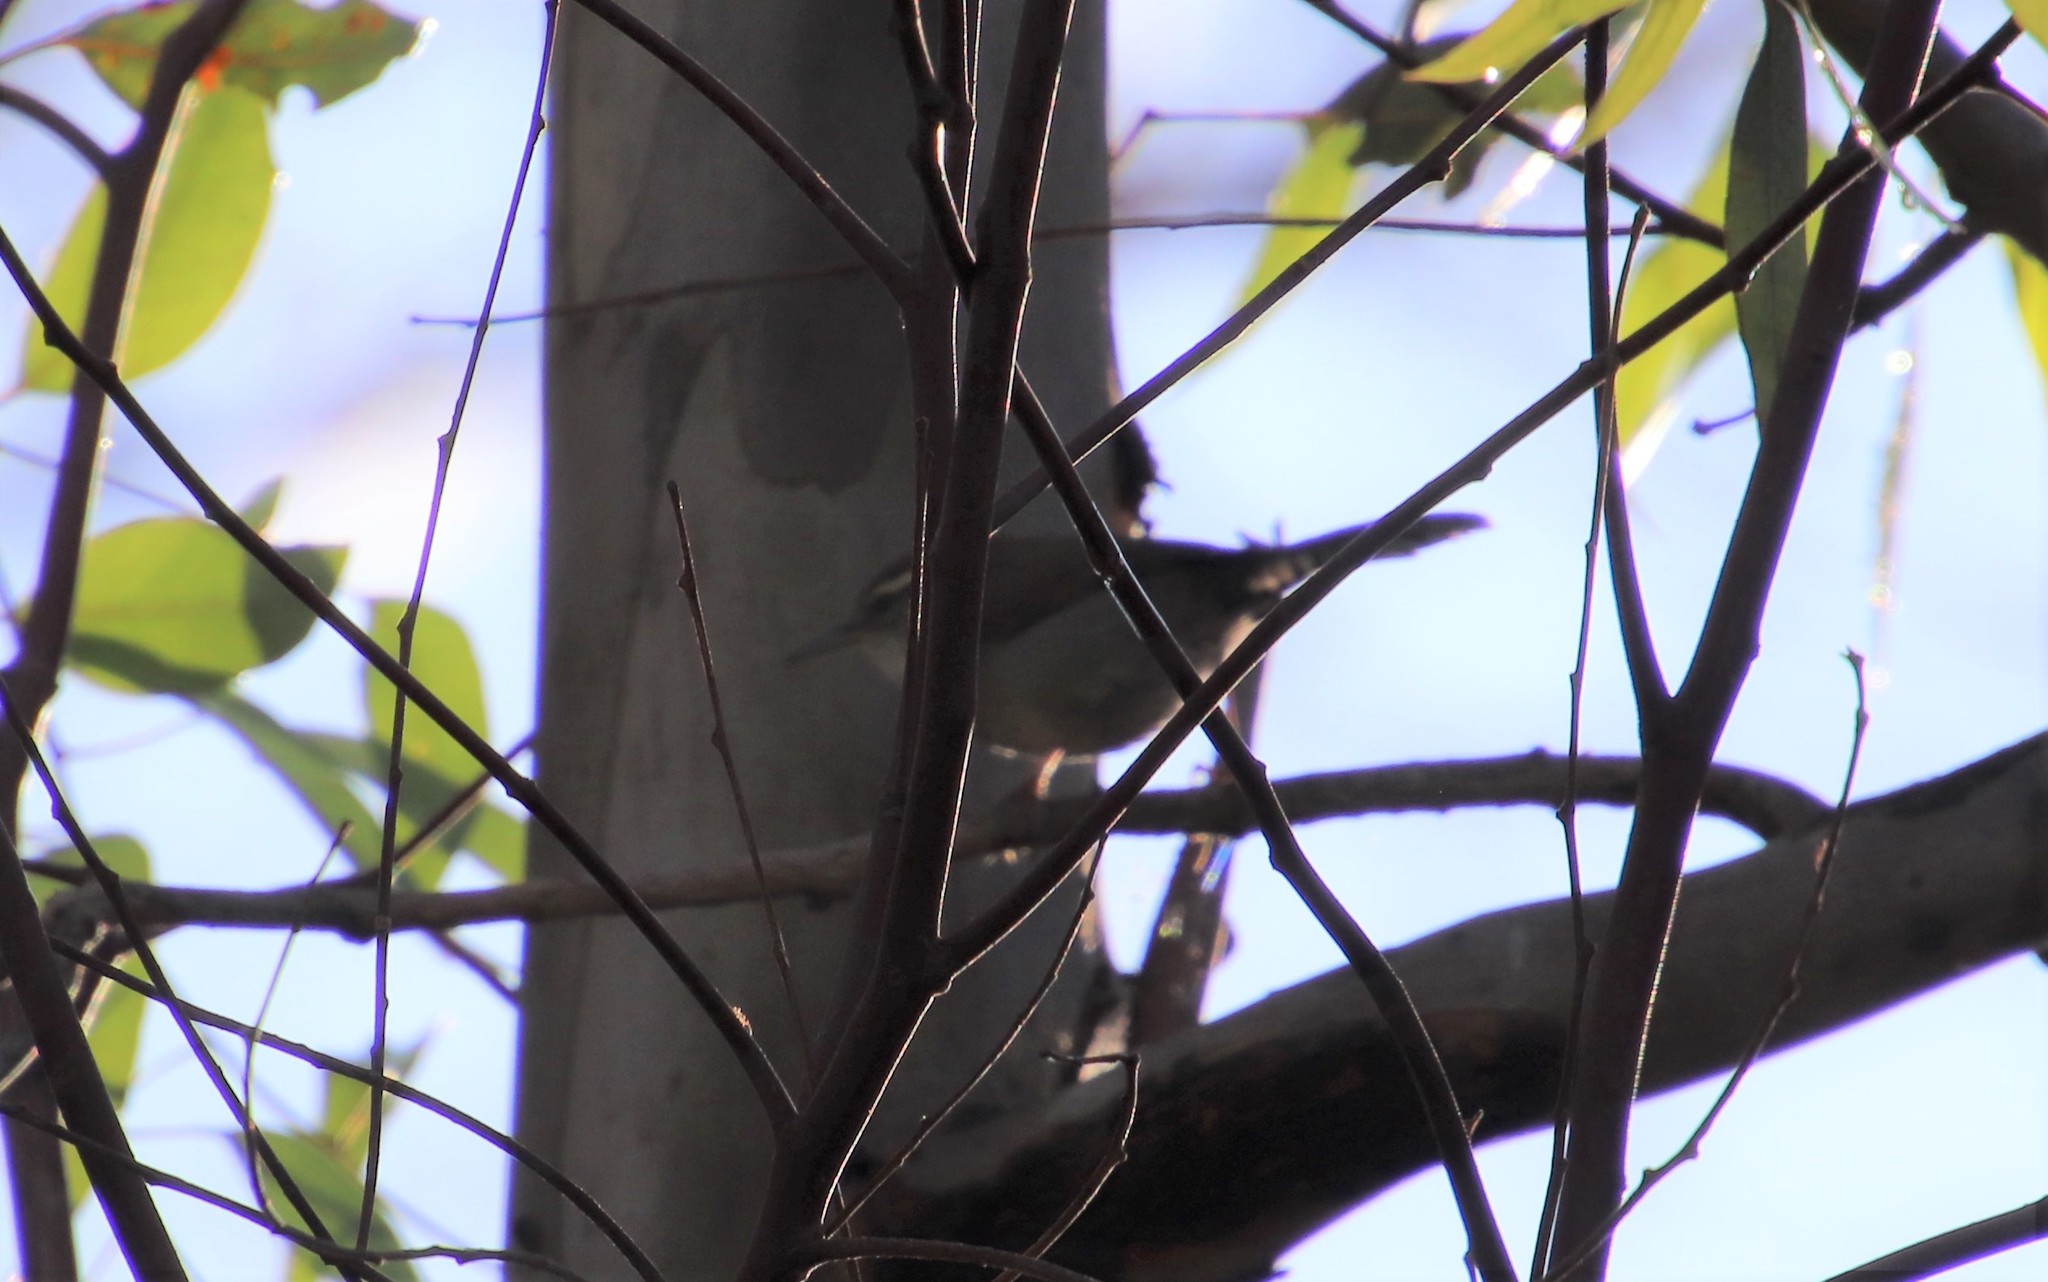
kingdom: Animalia
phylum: Chordata
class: Aves
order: Passeriformes
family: Troglodytidae
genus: Thryomanes
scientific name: Thryomanes bewickii
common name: Bewick's wren
